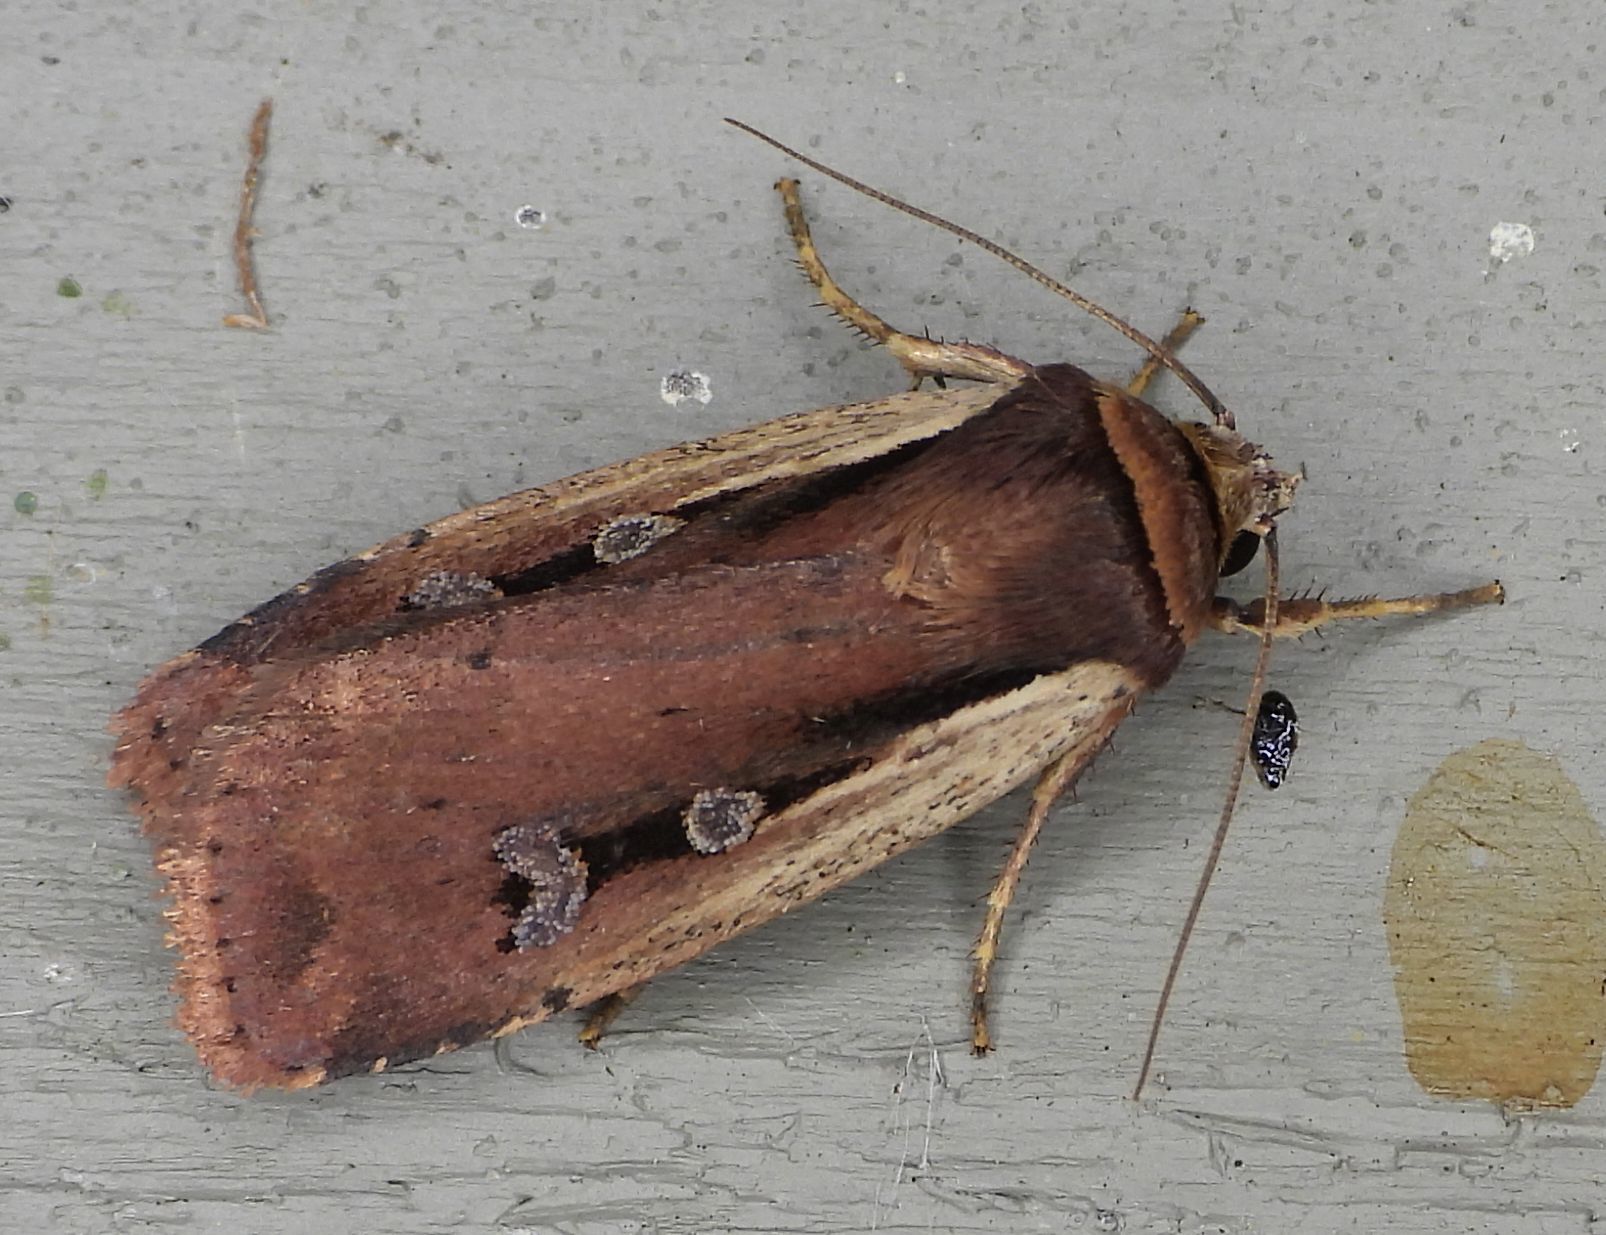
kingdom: Animalia
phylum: Arthropoda
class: Insecta
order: Lepidoptera
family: Noctuidae
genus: Ochropleura
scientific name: Ochropleura implecta
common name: Flame-shouldered dart
